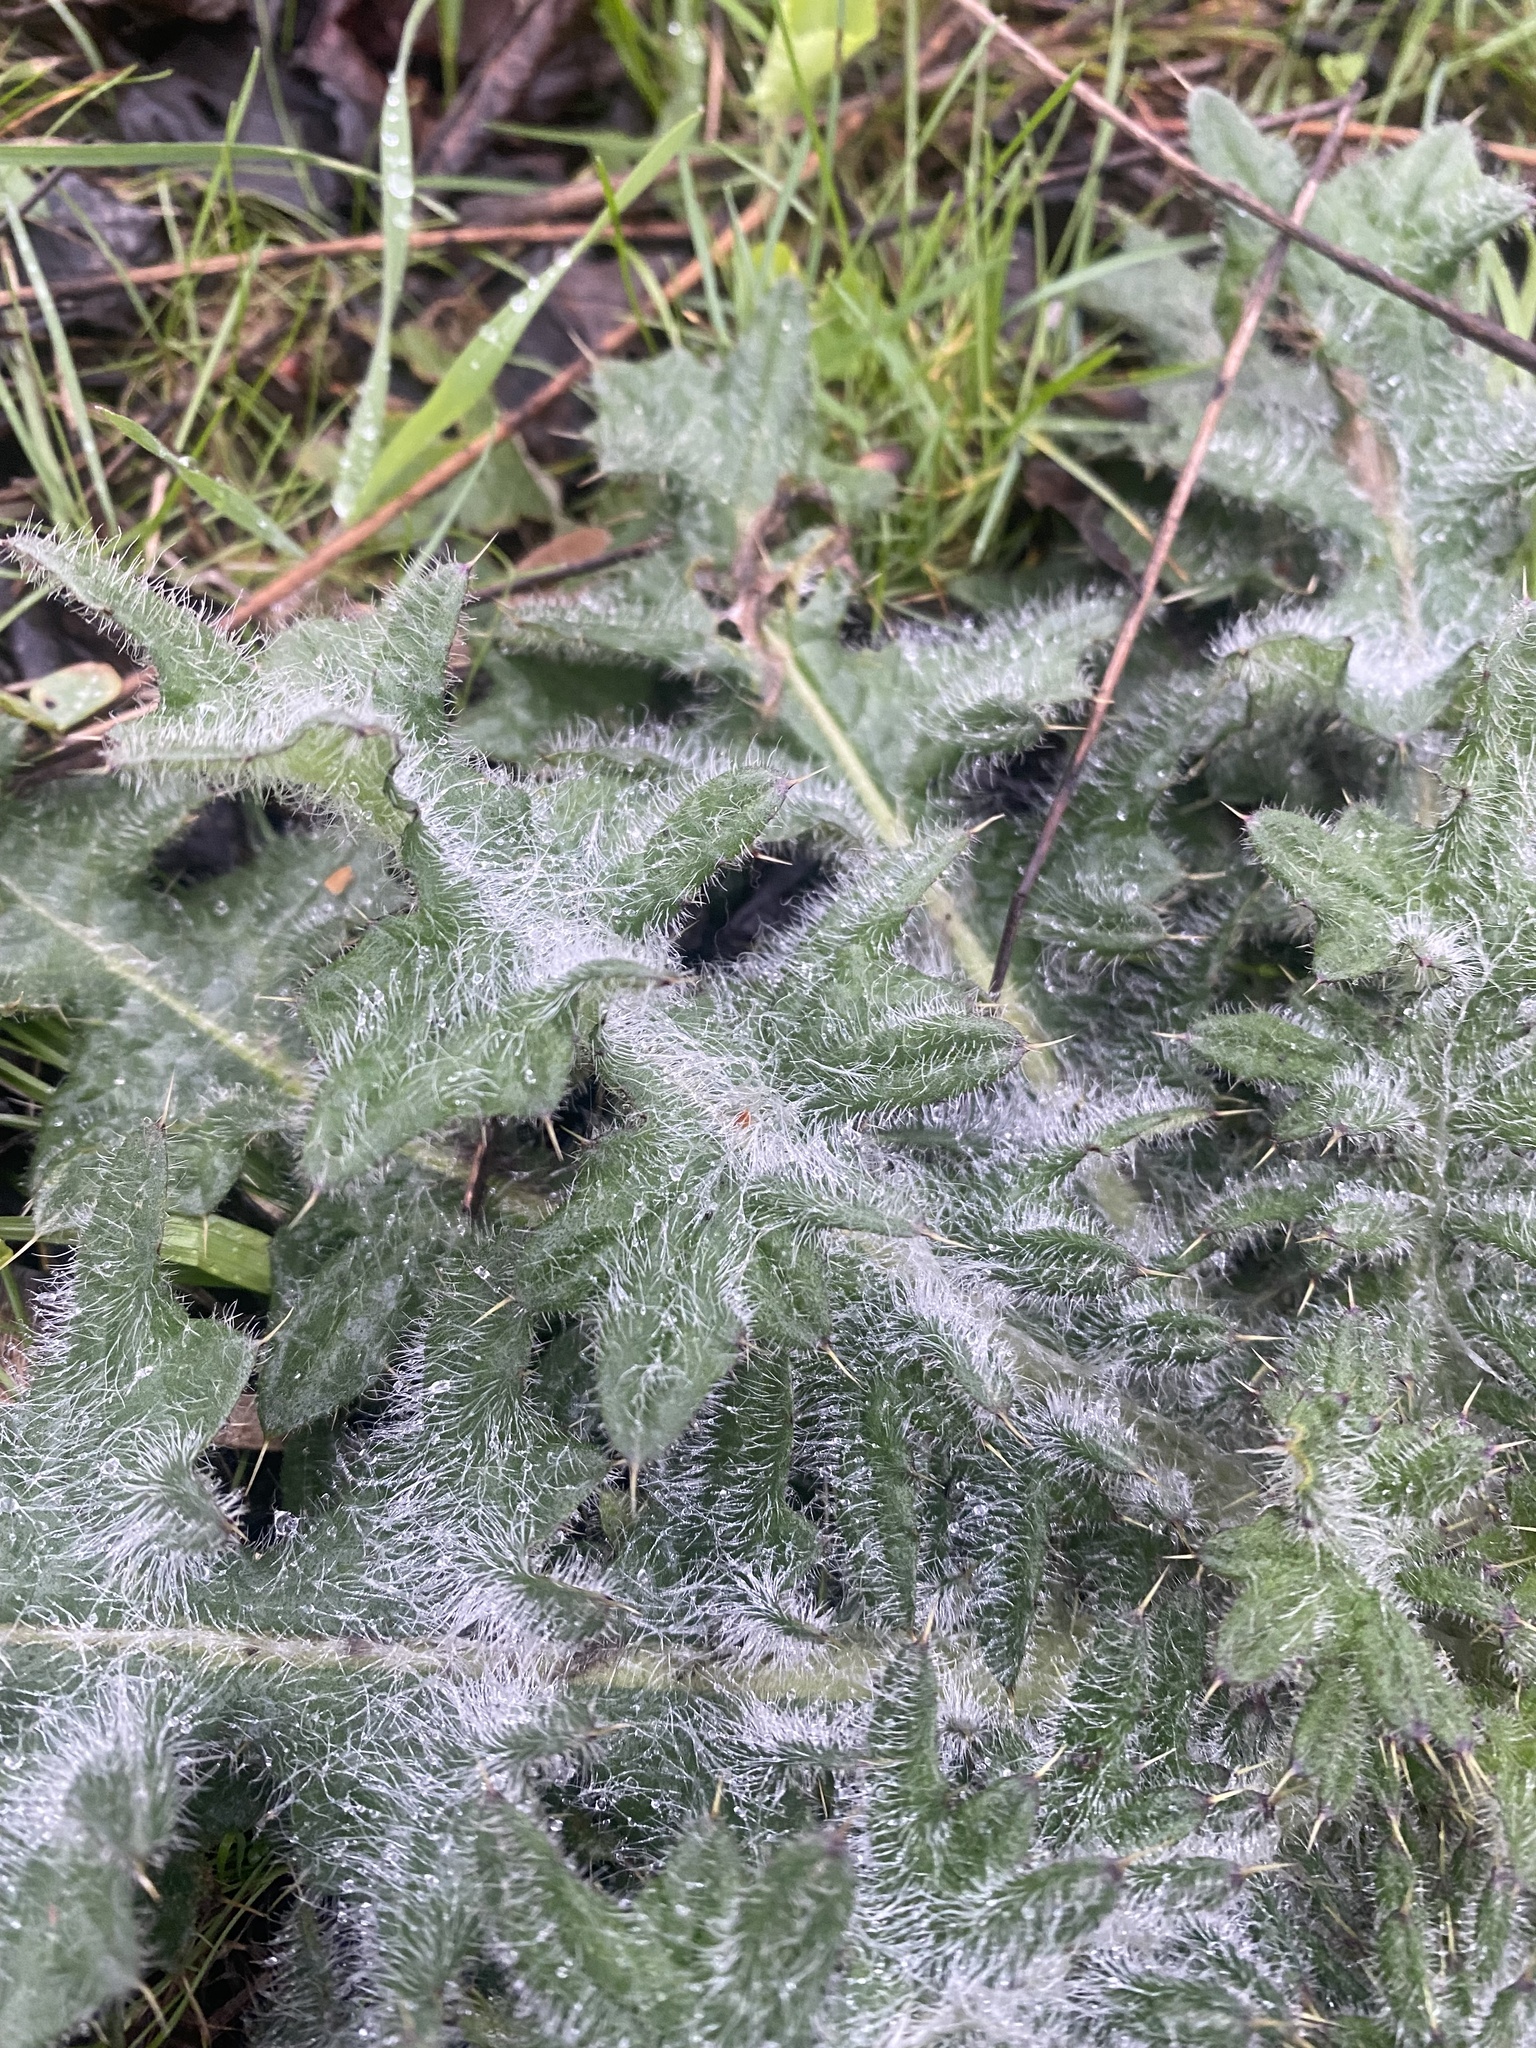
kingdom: Plantae
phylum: Tracheophyta
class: Magnoliopsida
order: Asterales
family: Asteraceae
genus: Cirsium
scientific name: Cirsium vulgare
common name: Bull thistle
